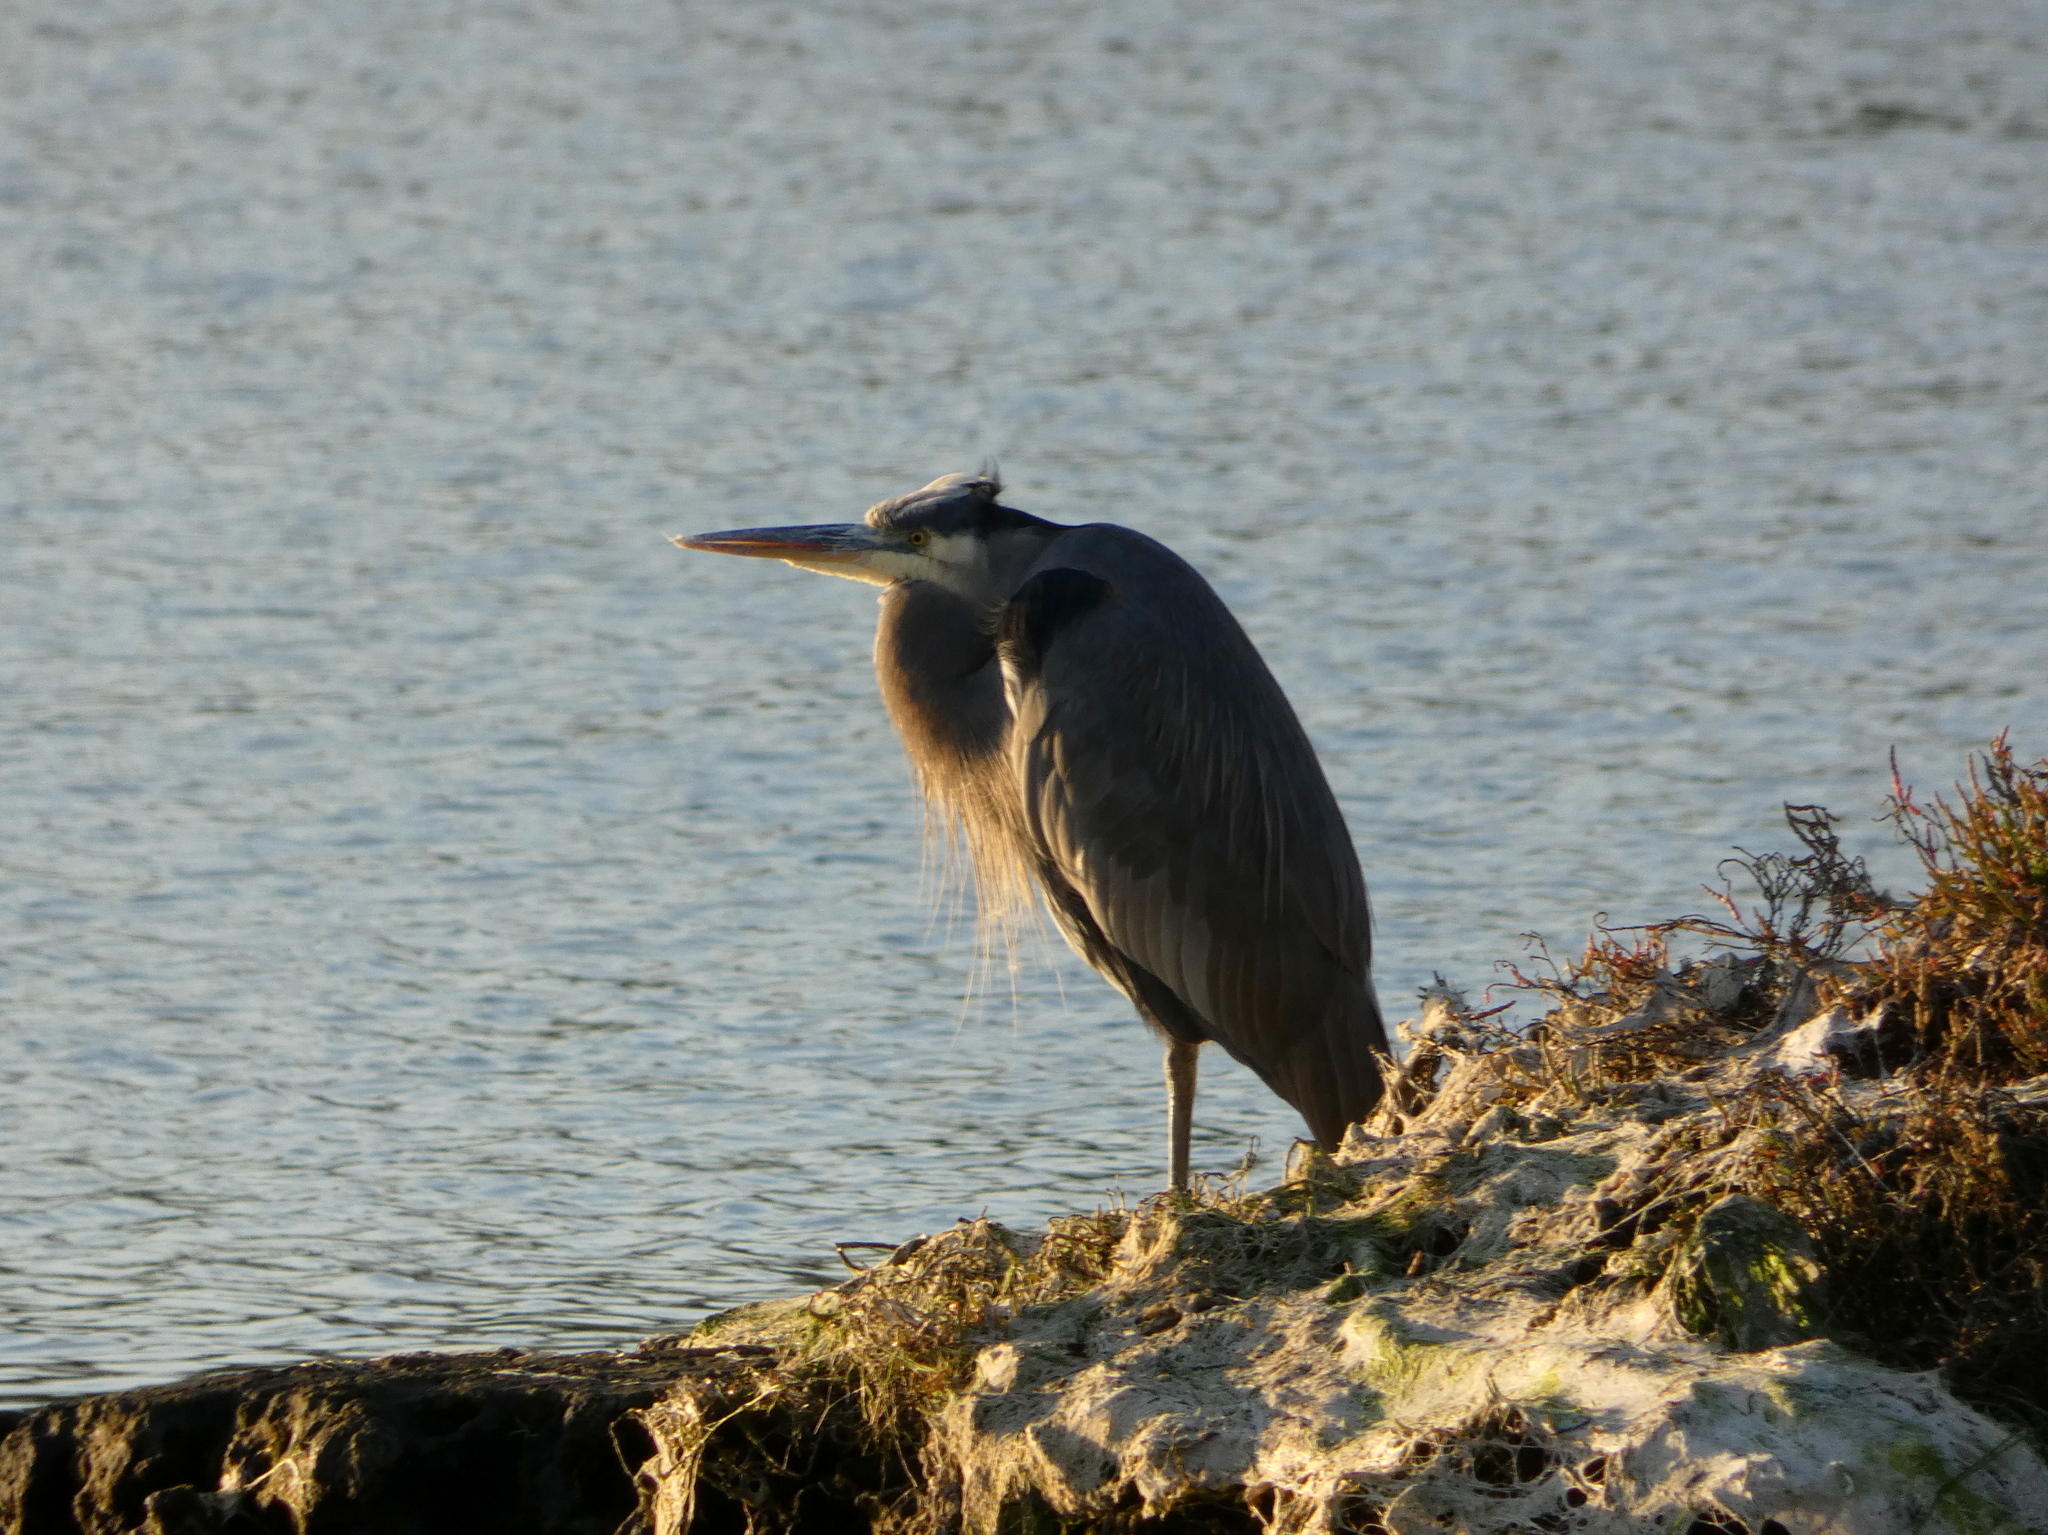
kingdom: Animalia
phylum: Chordata
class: Aves
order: Pelecaniformes
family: Ardeidae
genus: Ardea
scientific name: Ardea herodias
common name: Great blue heron
